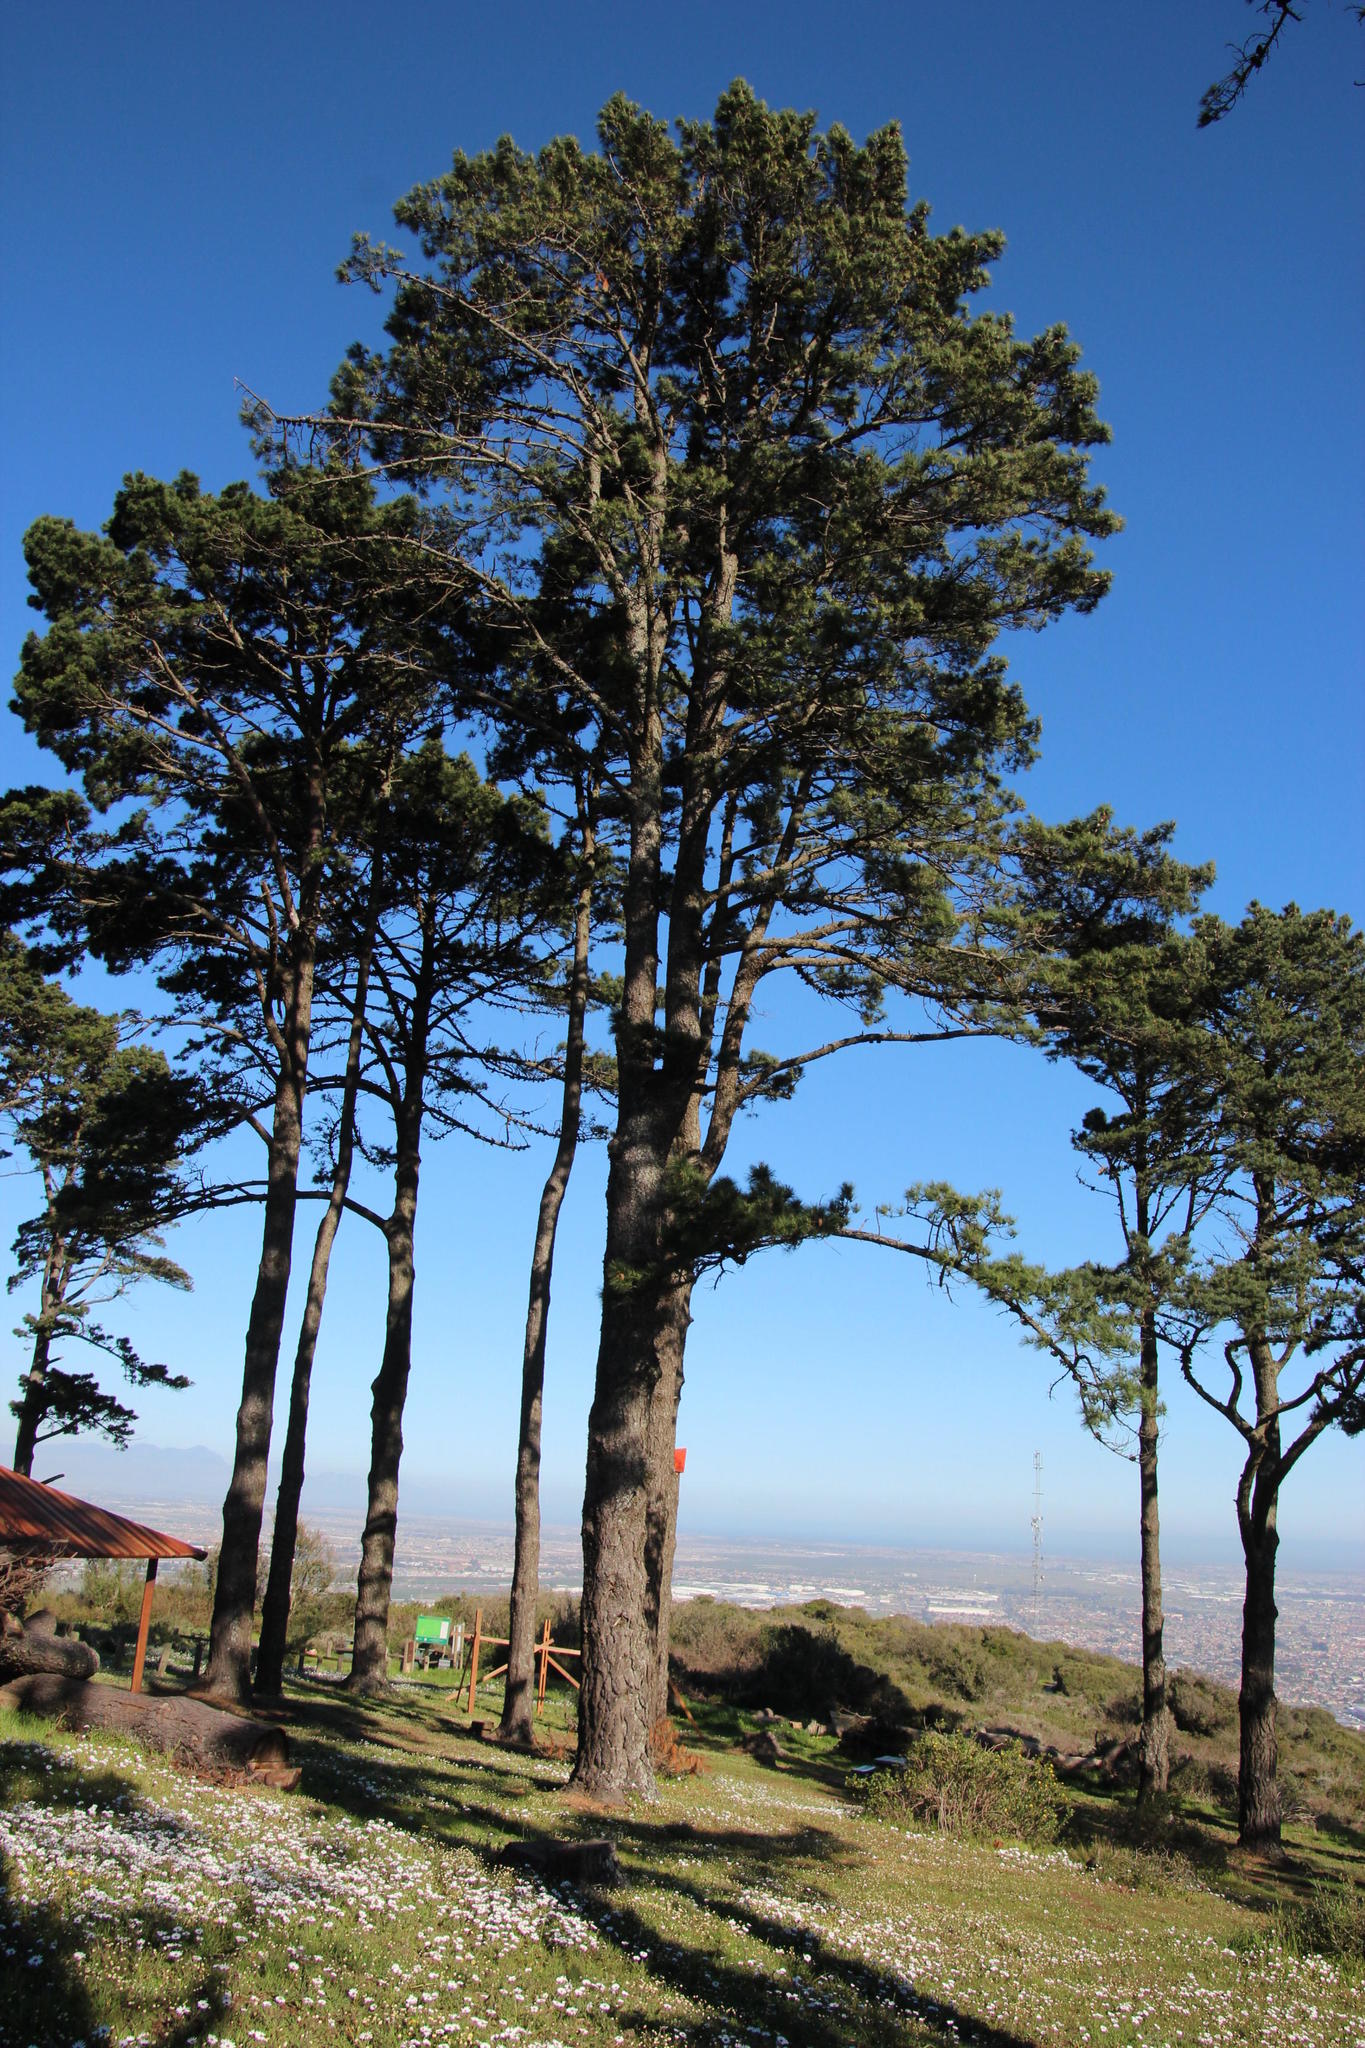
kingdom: Plantae
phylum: Tracheophyta
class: Pinopsida
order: Pinales
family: Pinaceae
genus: Pinus
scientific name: Pinus radiata
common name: Monterey pine
